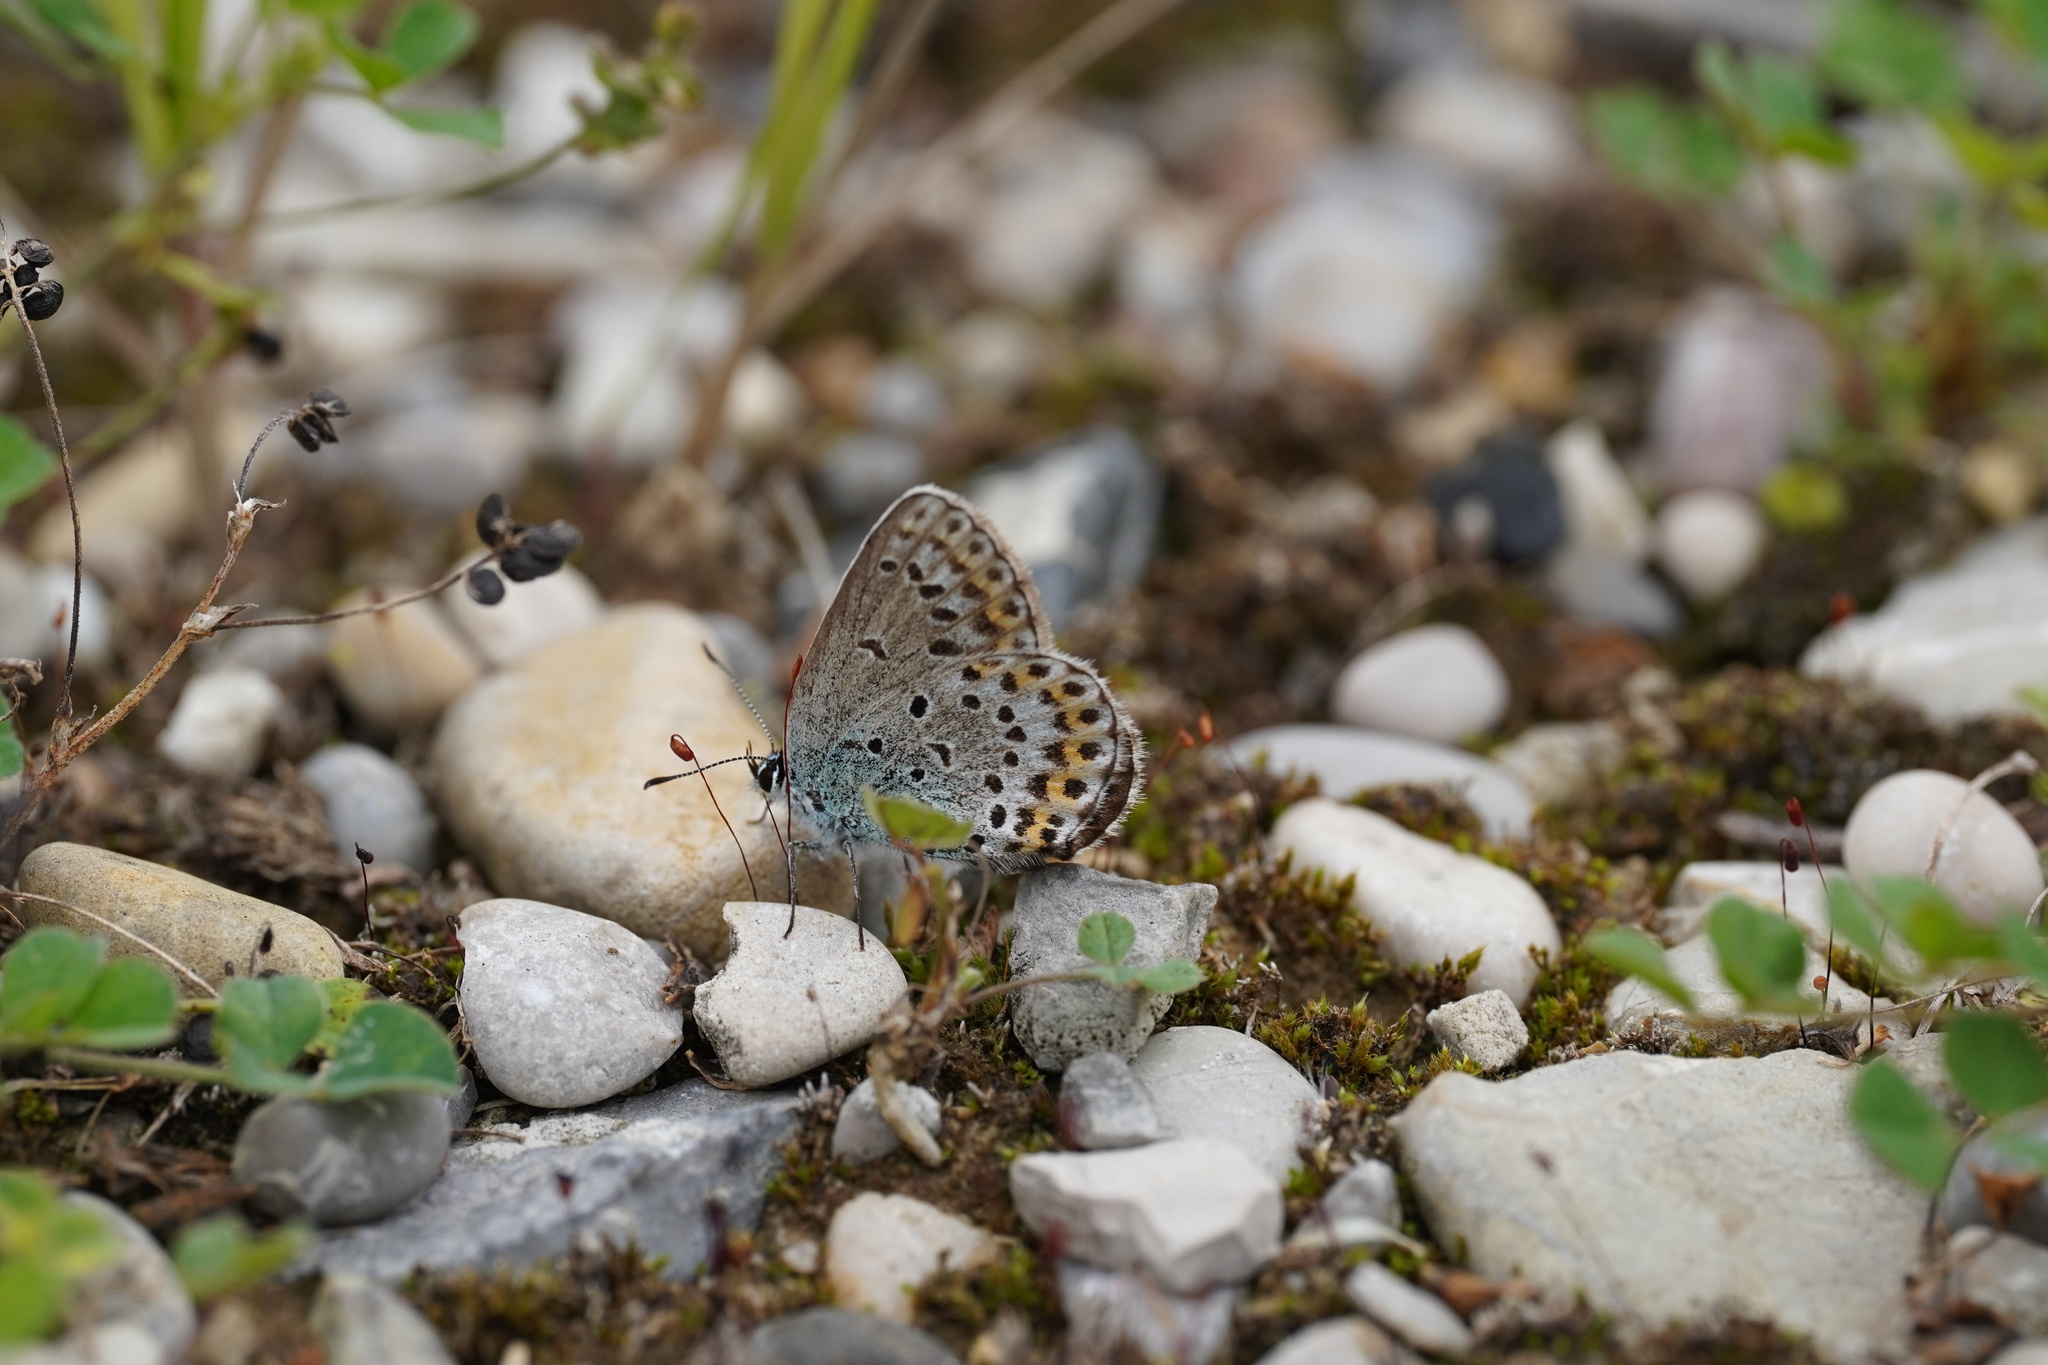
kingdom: Animalia
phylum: Arthropoda
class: Insecta
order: Lepidoptera
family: Lycaenidae
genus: Lycaeides
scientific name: Lycaeides idas
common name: Northern blue
